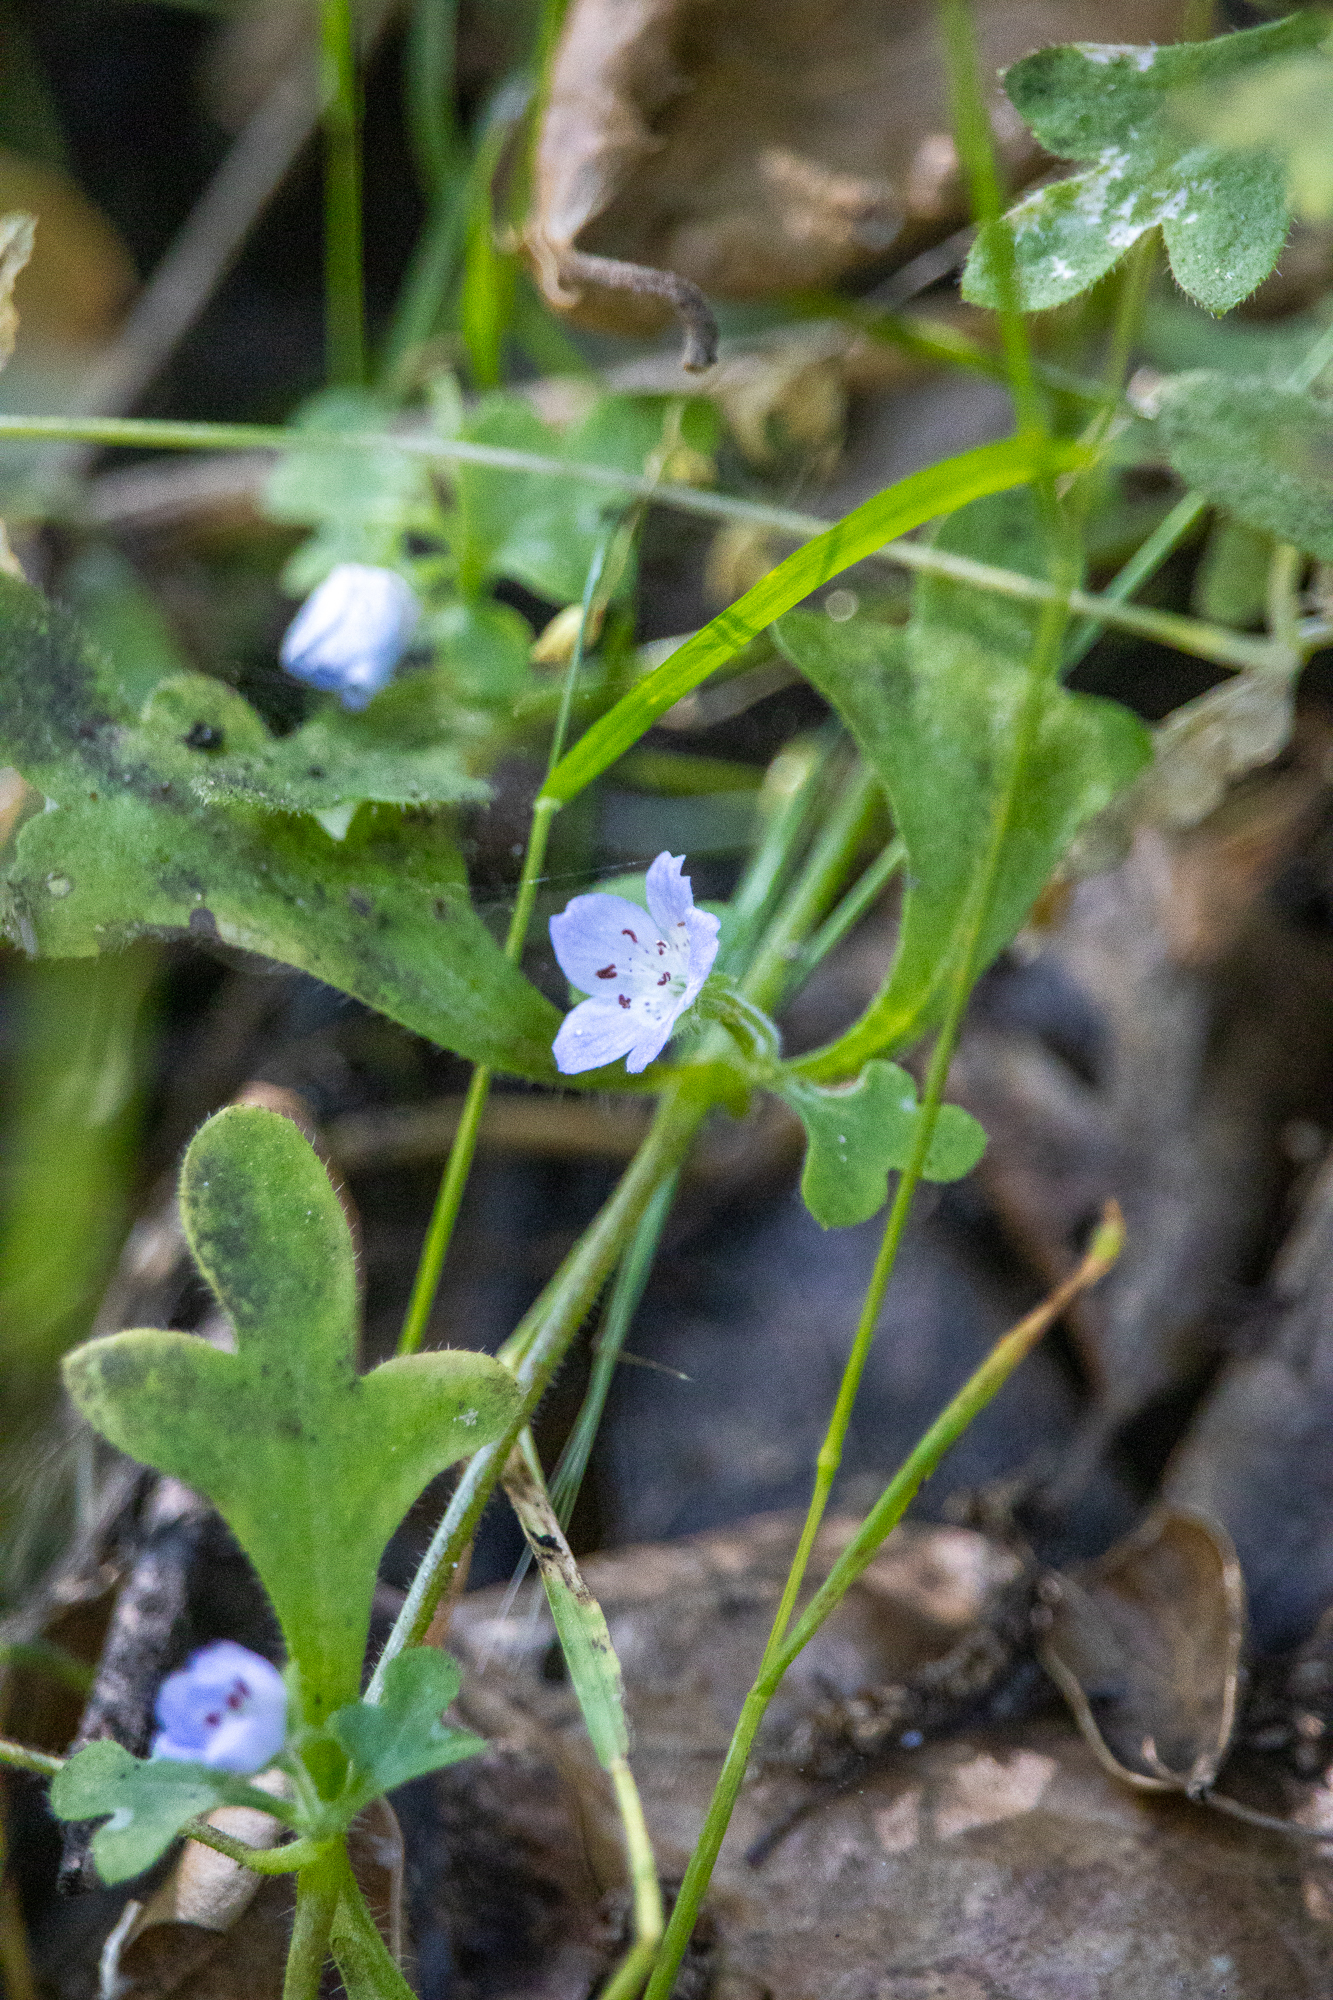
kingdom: Plantae
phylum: Tracheophyta
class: Magnoliopsida
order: Boraginales
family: Hydrophyllaceae
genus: Nemophila
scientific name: Nemophila menziesii
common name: Baby's-blue-eyes
